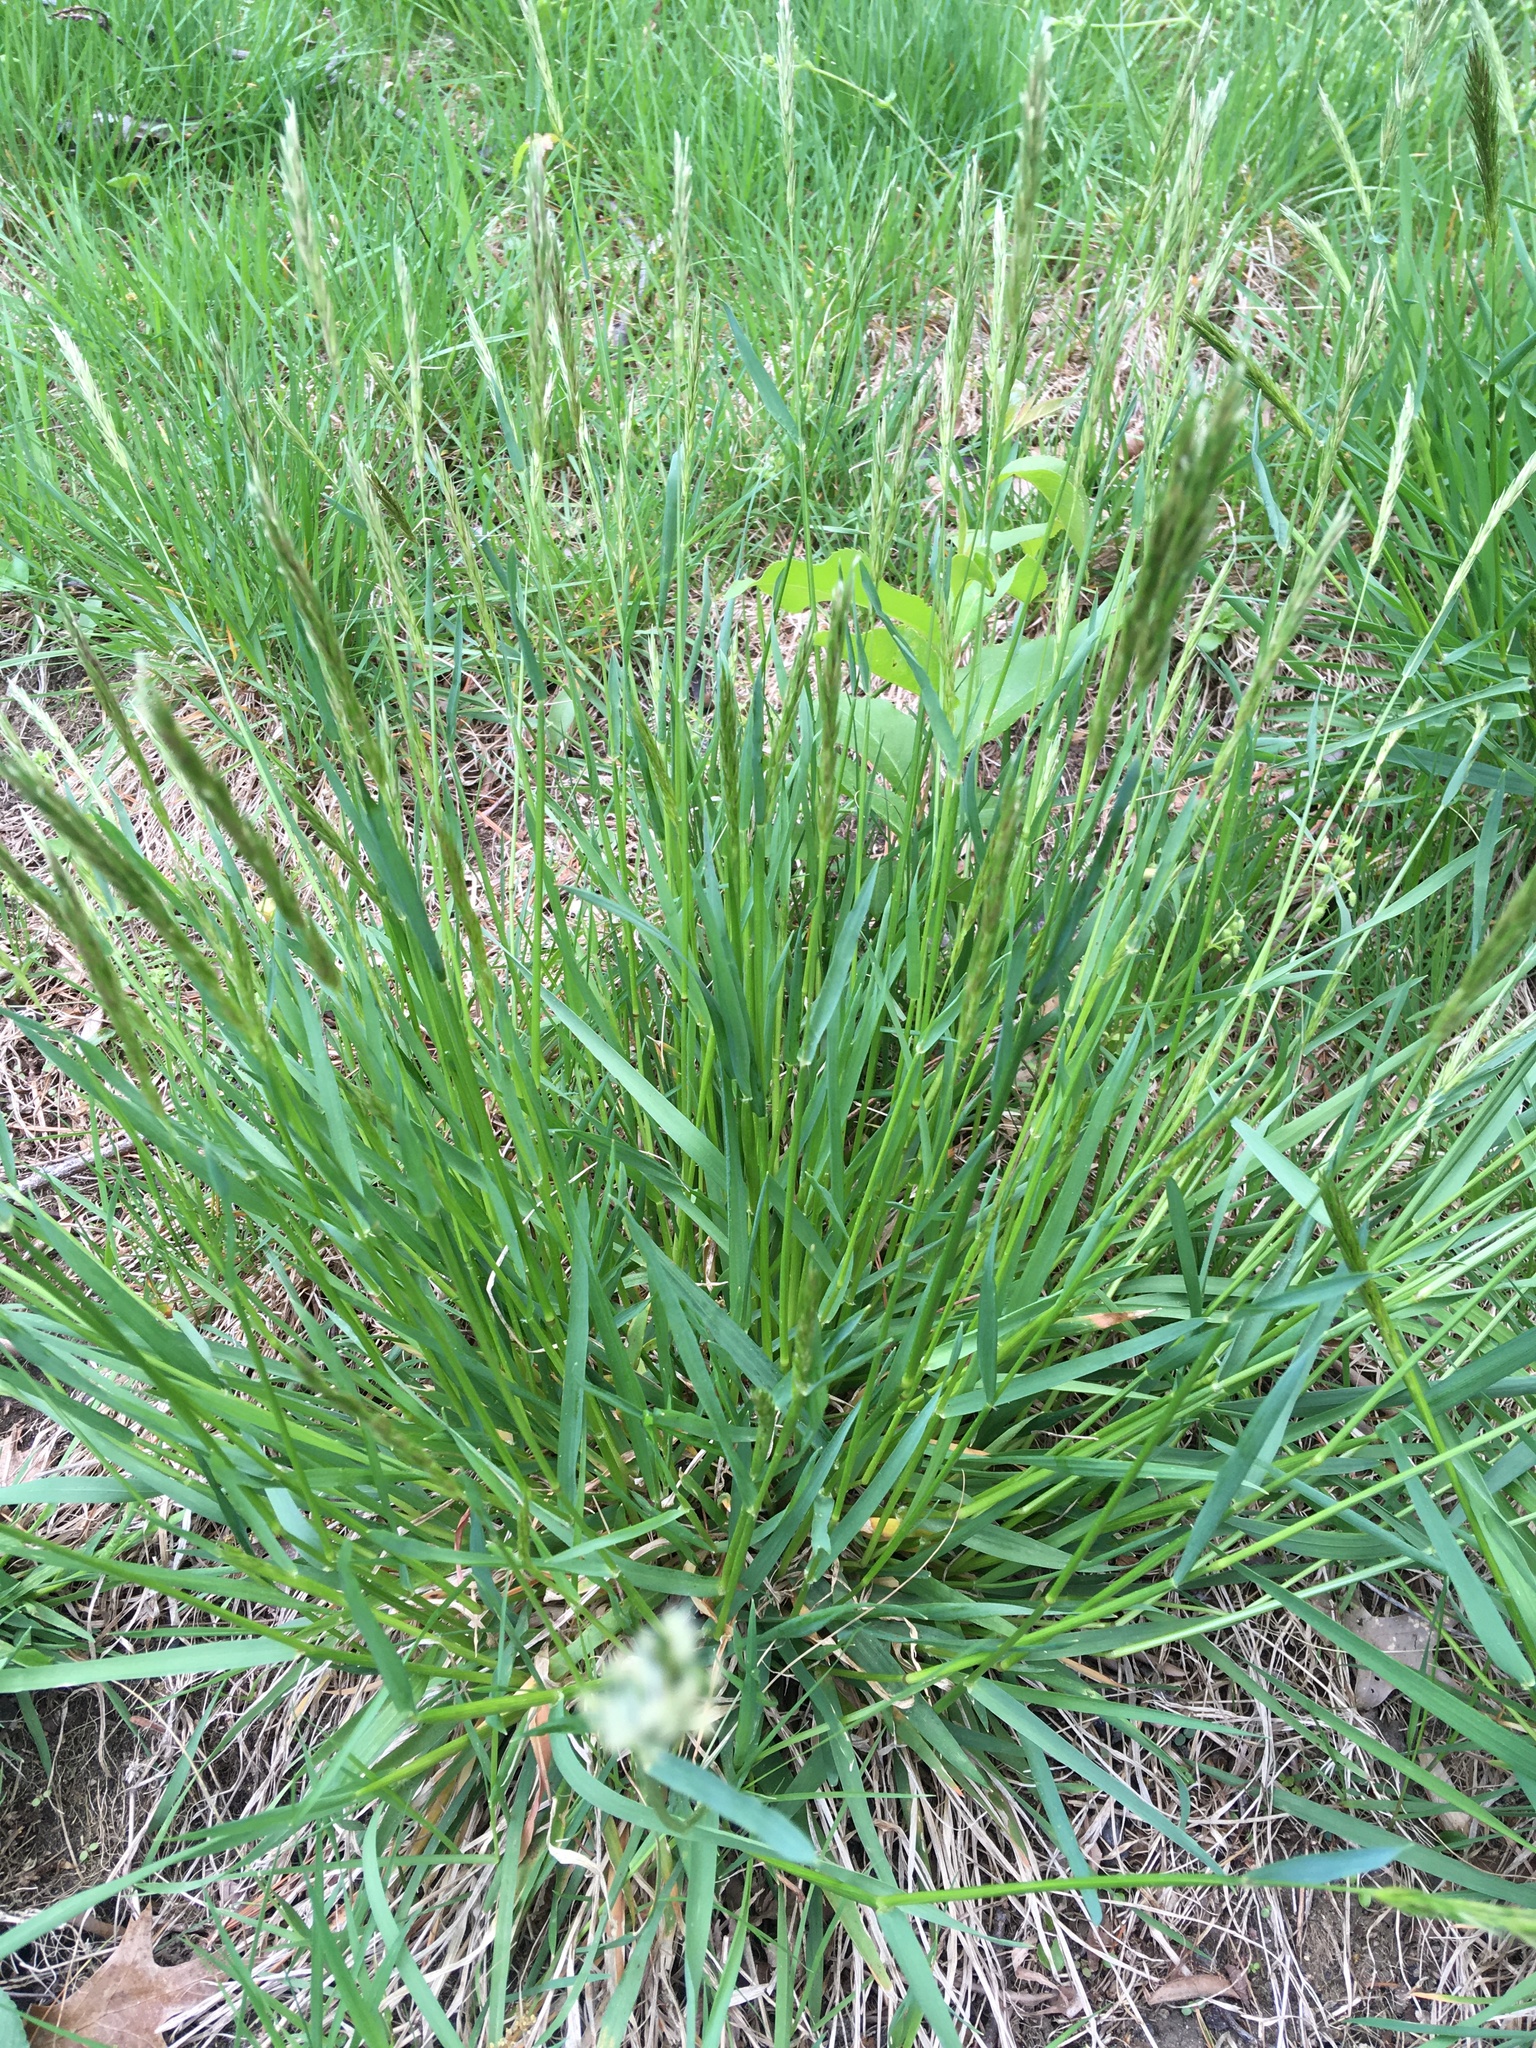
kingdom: Plantae
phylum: Tracheophyta
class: Liliopsida
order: Poales
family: Poaceae
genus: Anthoxanthum
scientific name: Anthoxanthum odoratum
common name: Sweet vernalgrass
